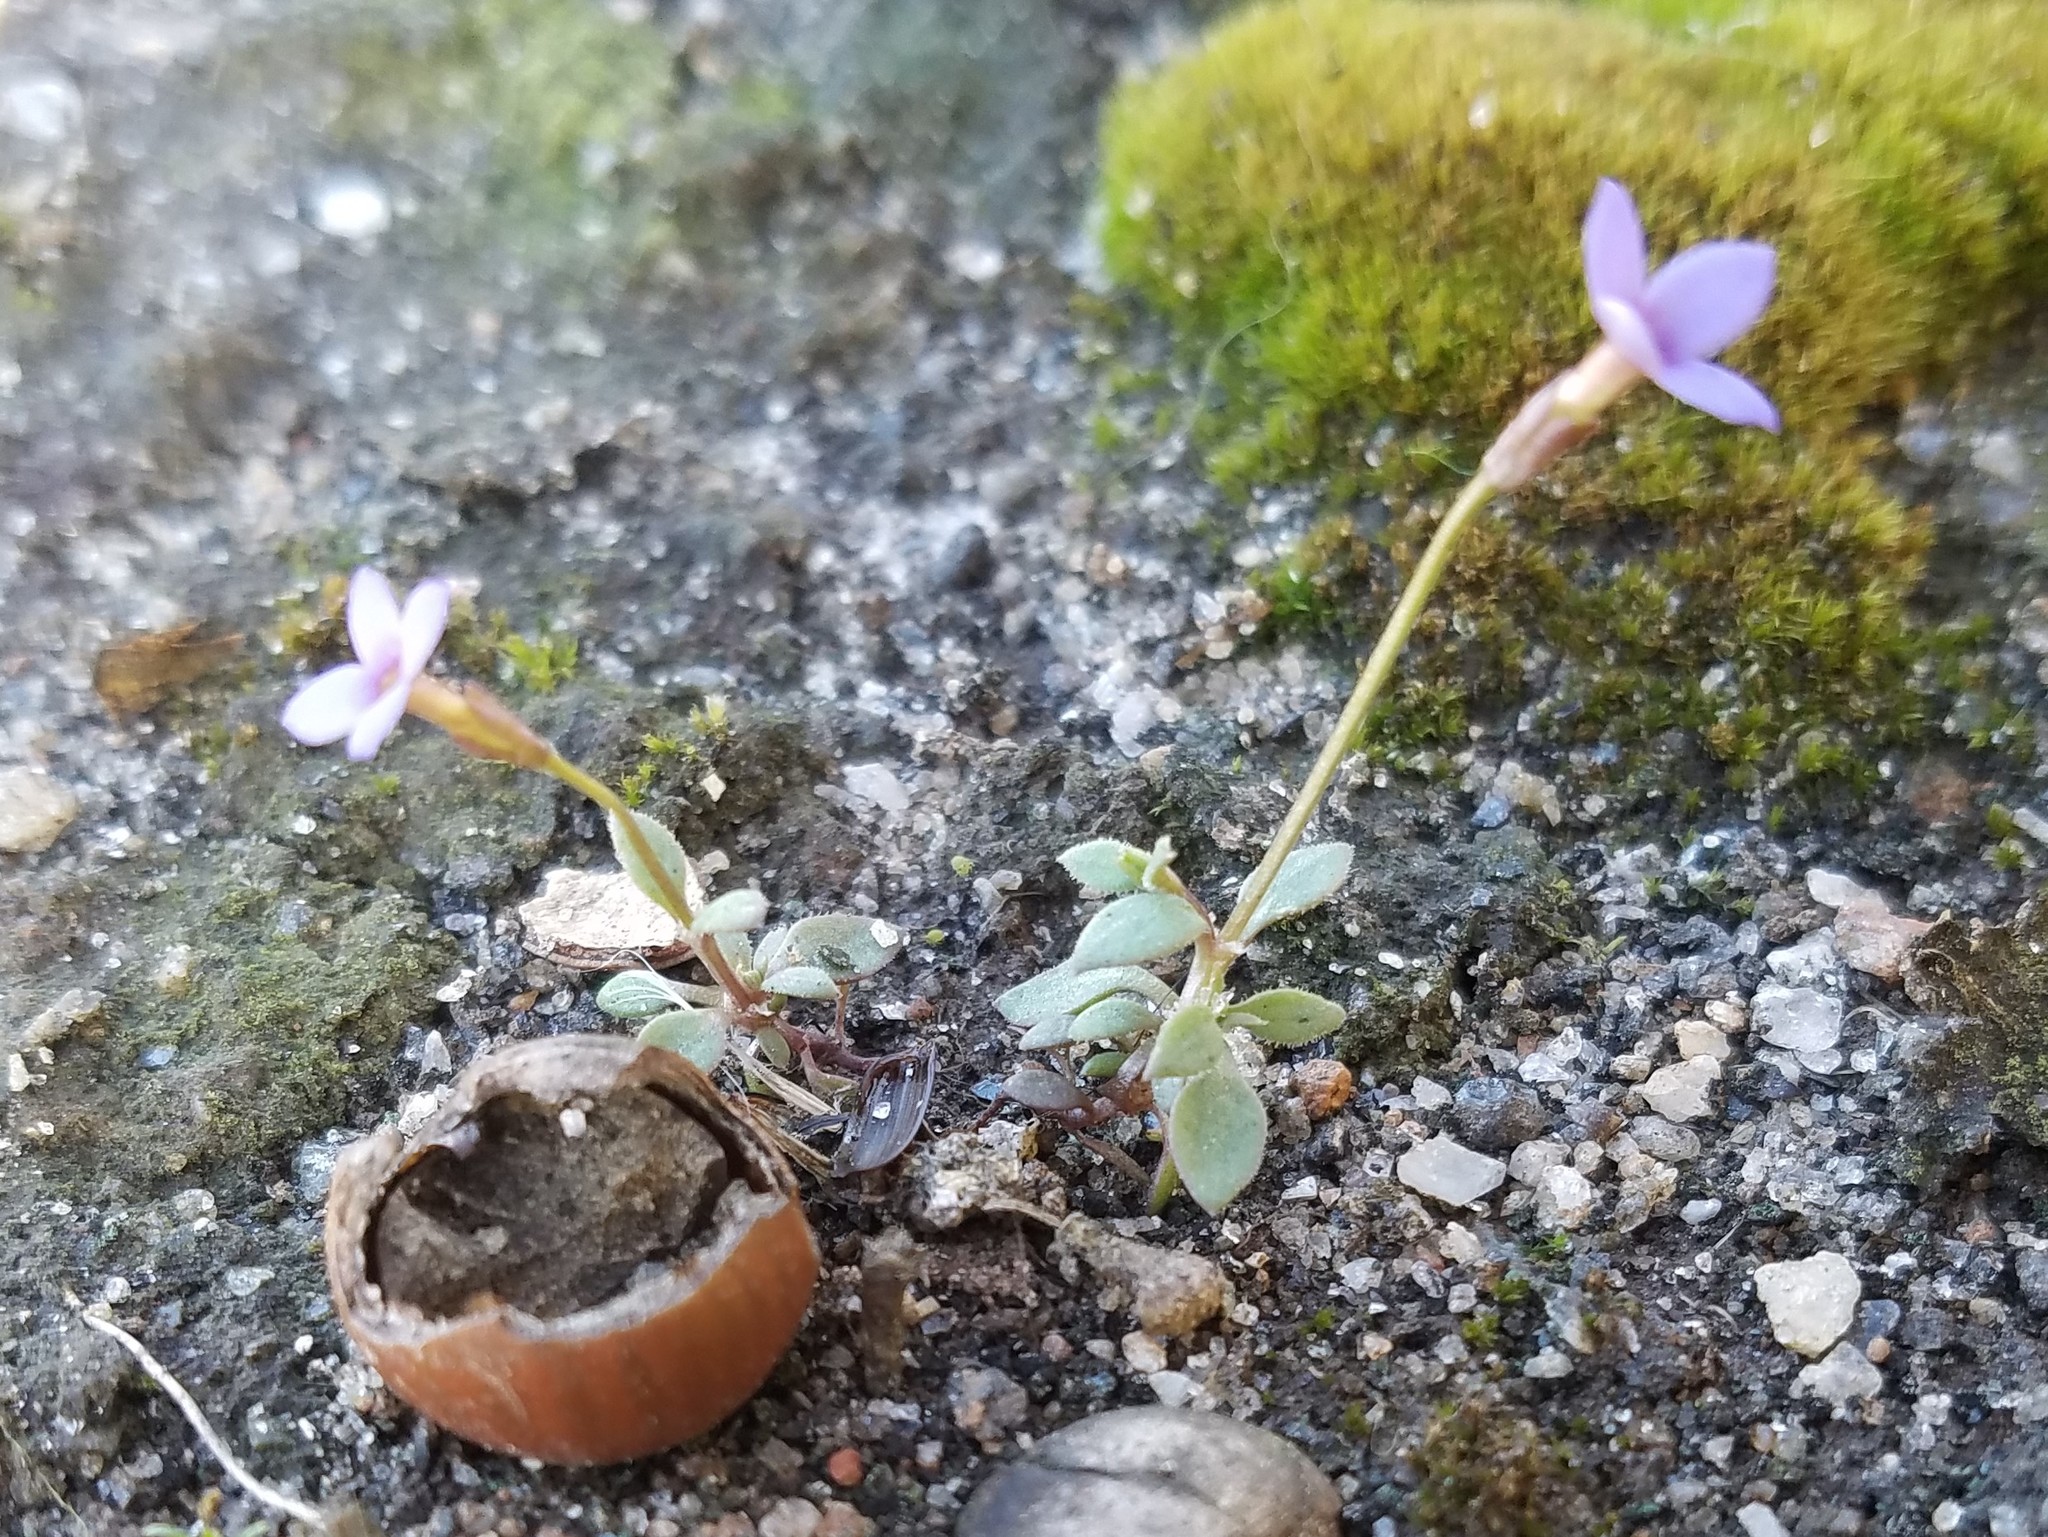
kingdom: Plantae
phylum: Tracheophyta
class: Magnoliopsida
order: Gentianales
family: Rubiaceae
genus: Houstonia
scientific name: Houstonia pusilla
